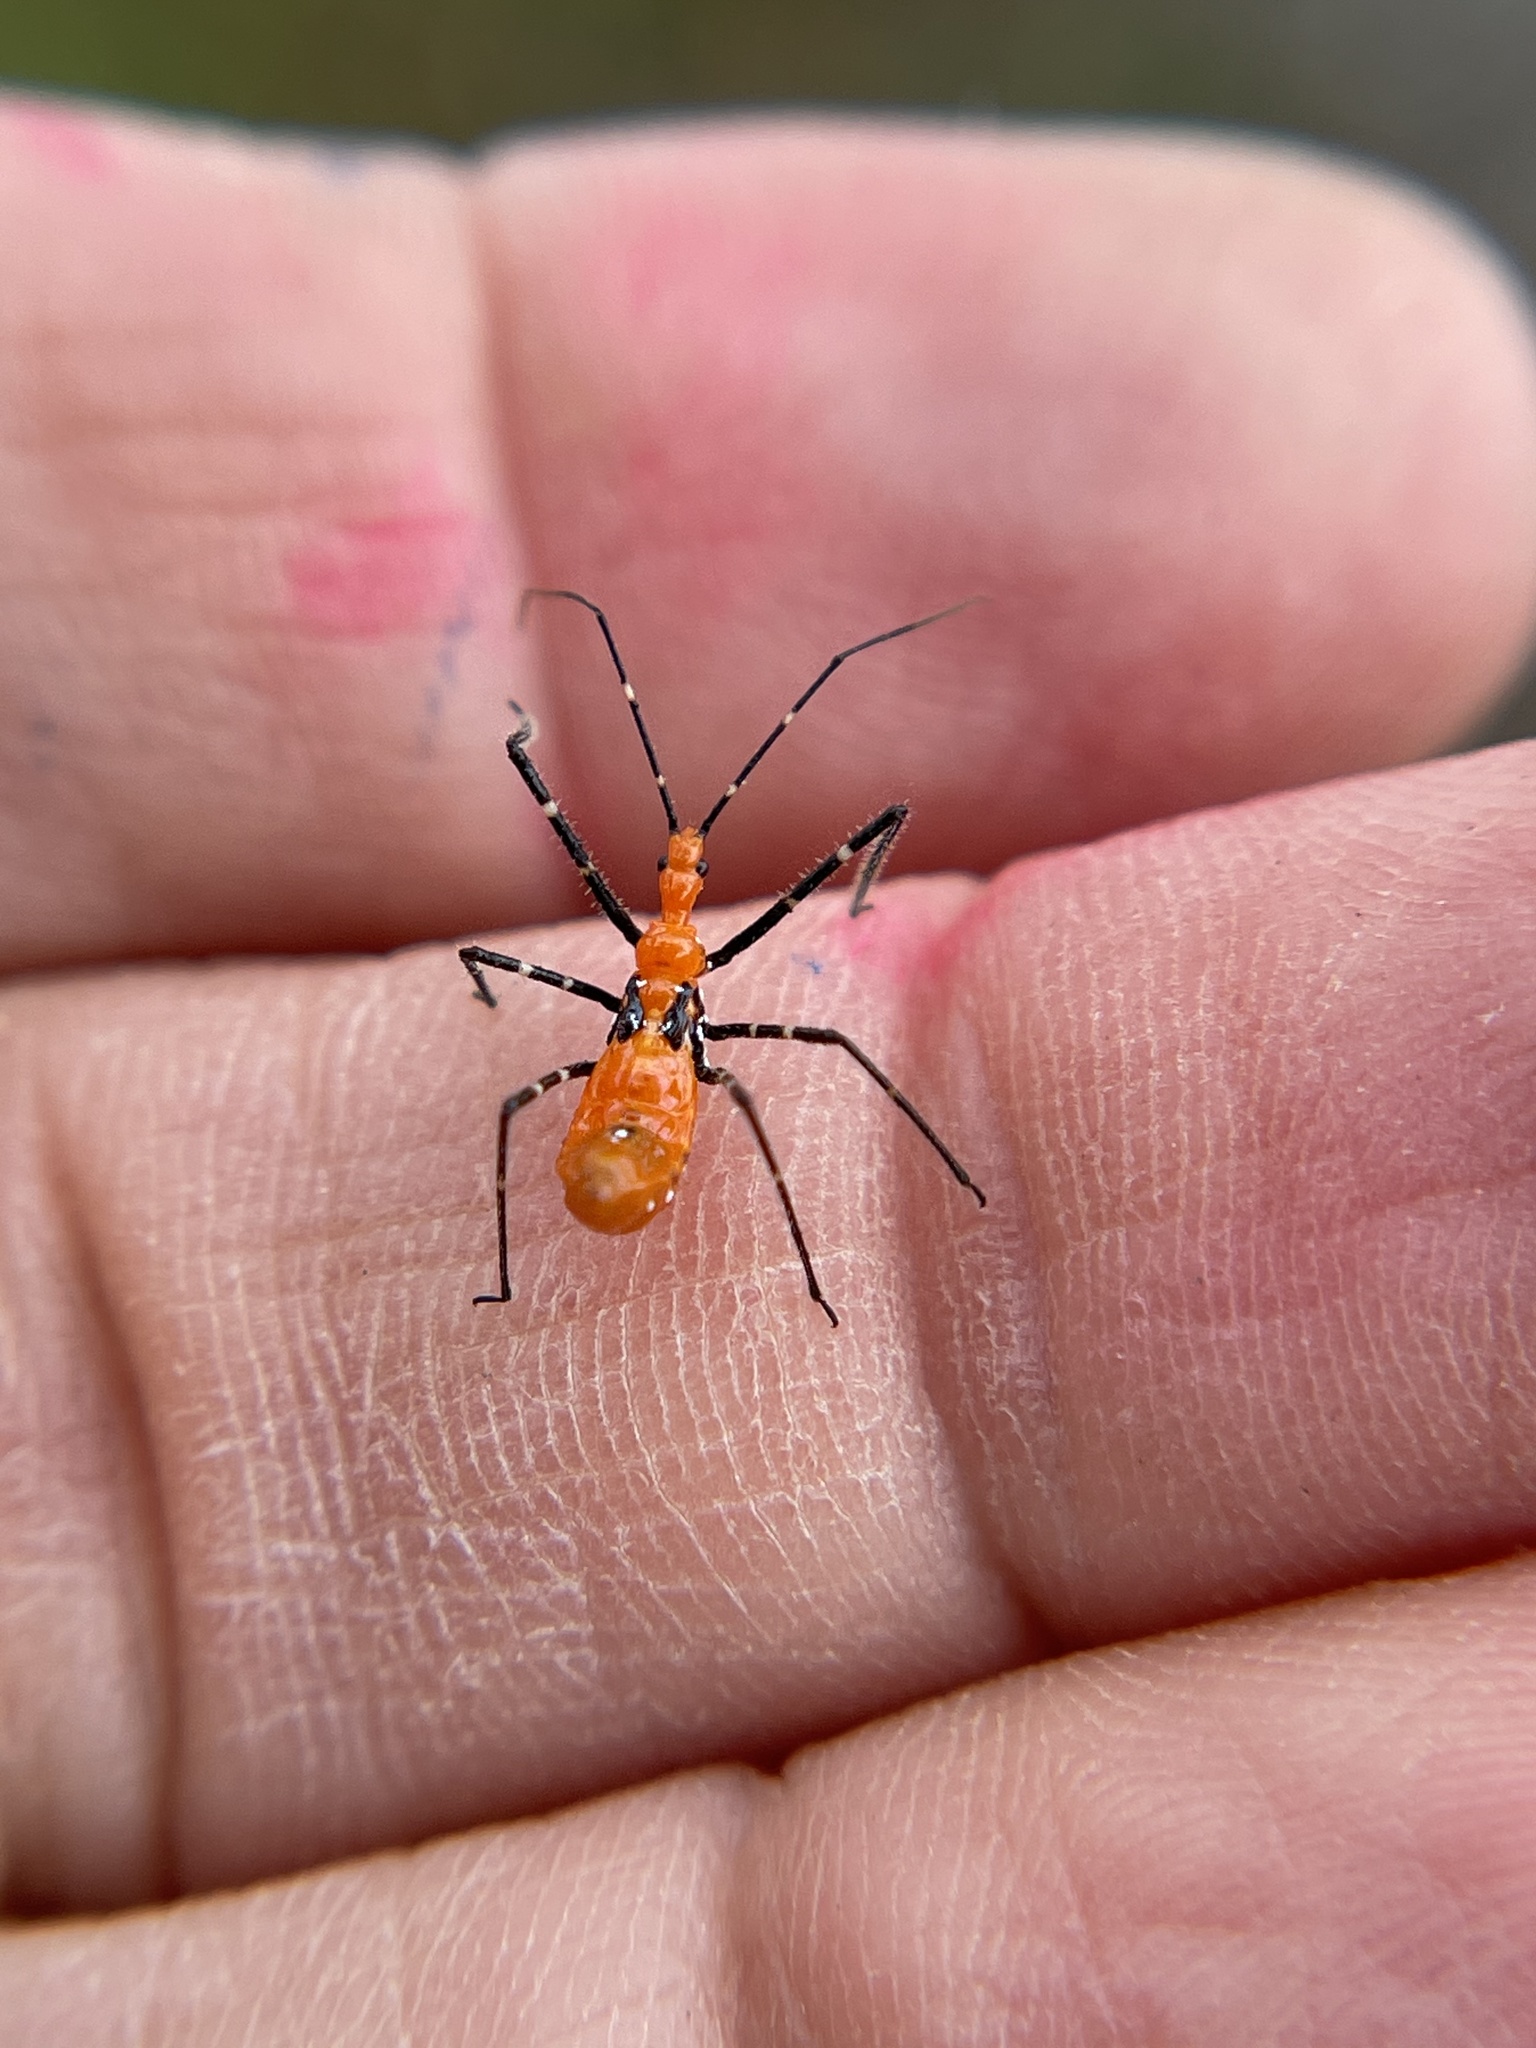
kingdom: Animalia
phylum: Arthropoda
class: Insecta
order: Hemiptera
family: Reduviidae
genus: Zelus
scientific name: Zelus longipes
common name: Milkweed assassin bug
